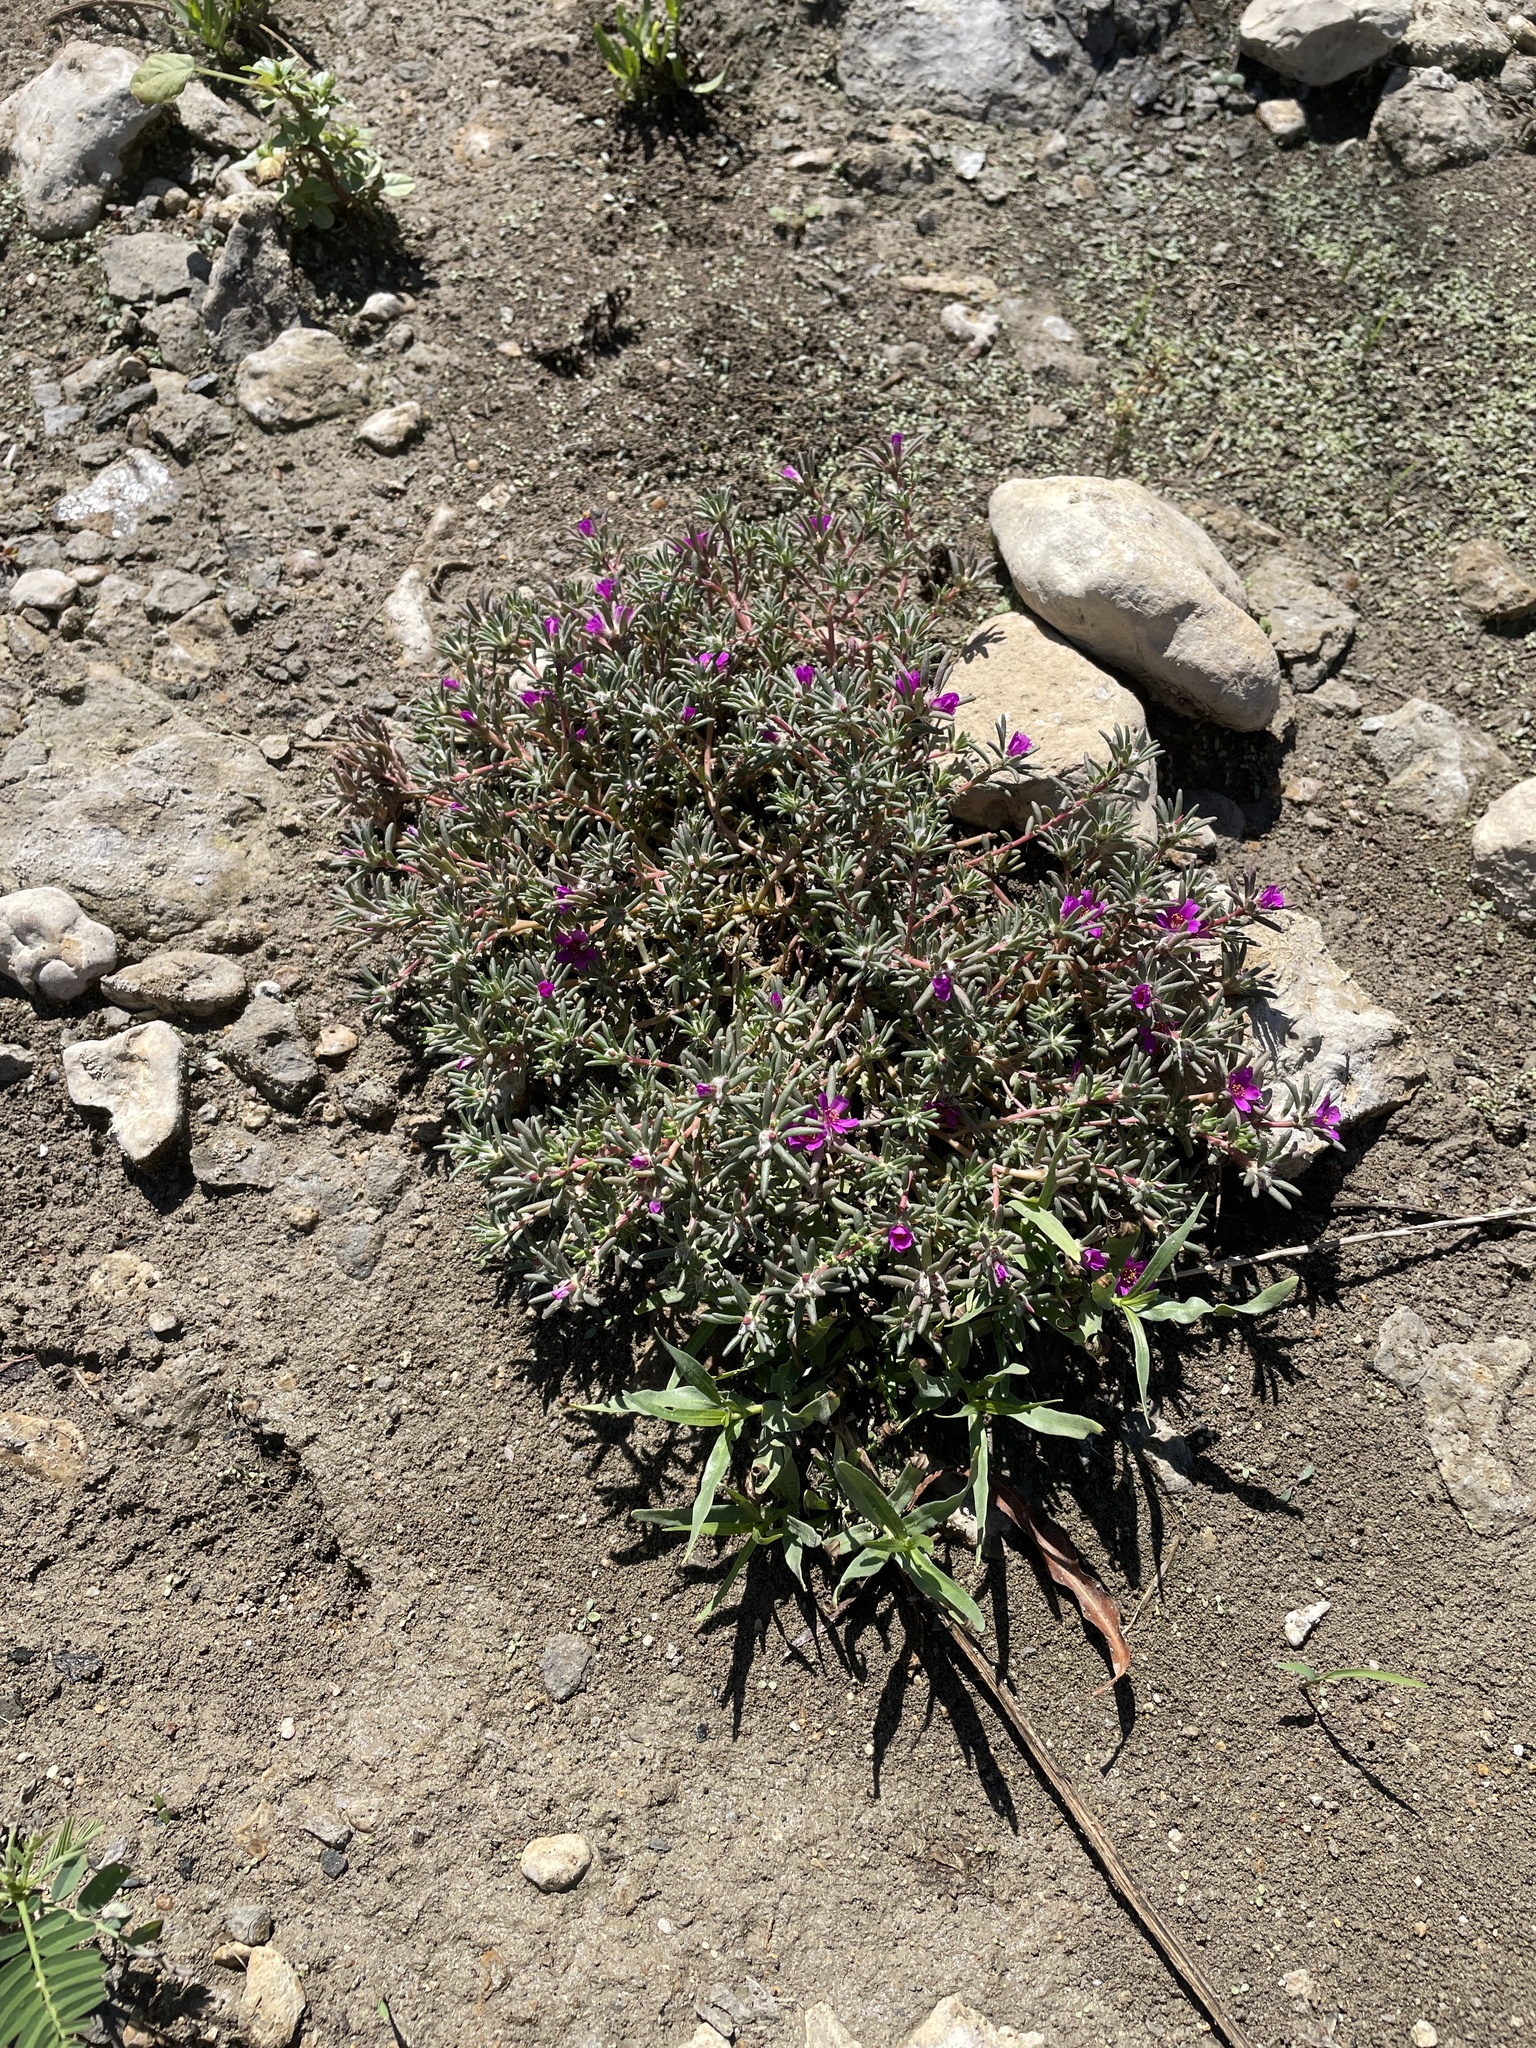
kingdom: Plantae
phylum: Tracheophyta
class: Magnoliopsida
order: Caryophyllales
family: Portulacaceae
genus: Portulaca
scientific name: Portulaca pilosa
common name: Kiss me quick
